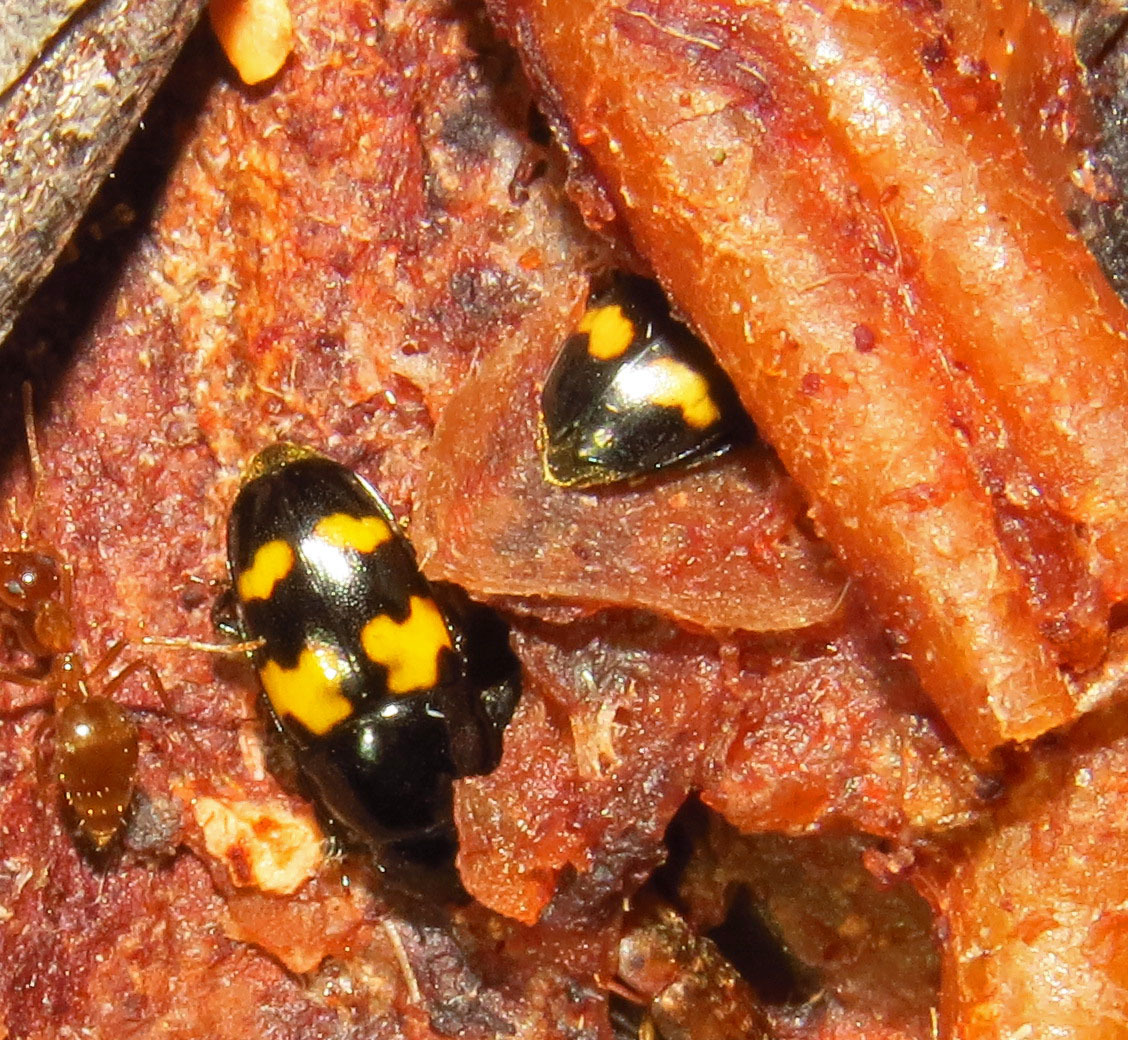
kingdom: Animalia
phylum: Arthropoda
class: Insecta
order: Coleoptera
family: Nitidulidae
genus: Glischrochilus
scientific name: Glischrochilus fasciatus
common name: Picnic beetle
